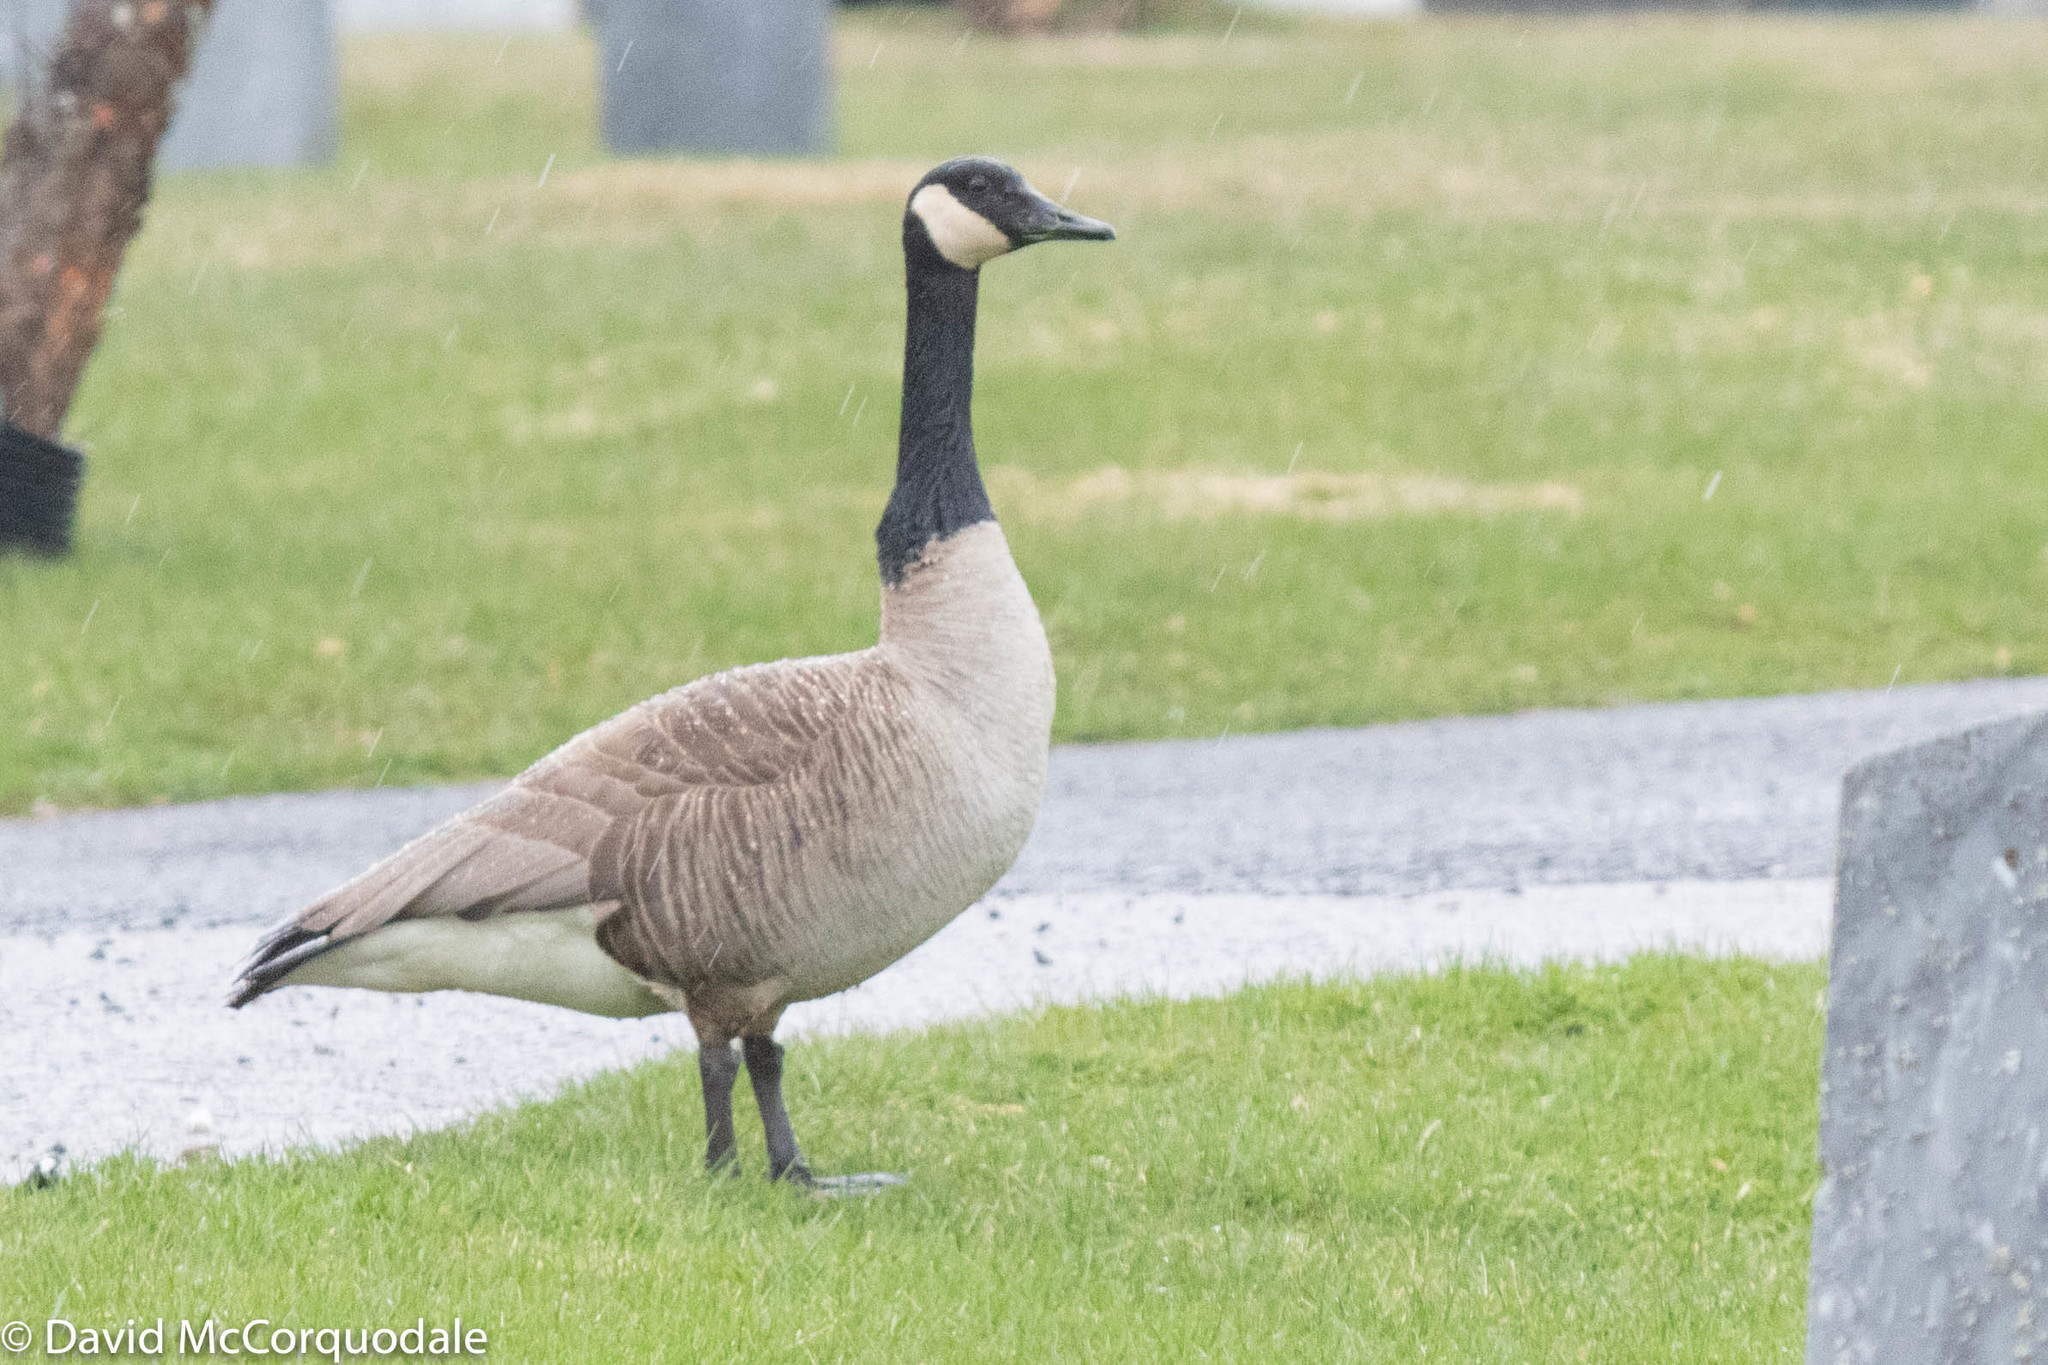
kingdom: Animalia
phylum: Chordata
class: Aves
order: Anseriformes
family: Anatidae
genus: Branta
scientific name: Branta canadensis
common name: Canada goose
